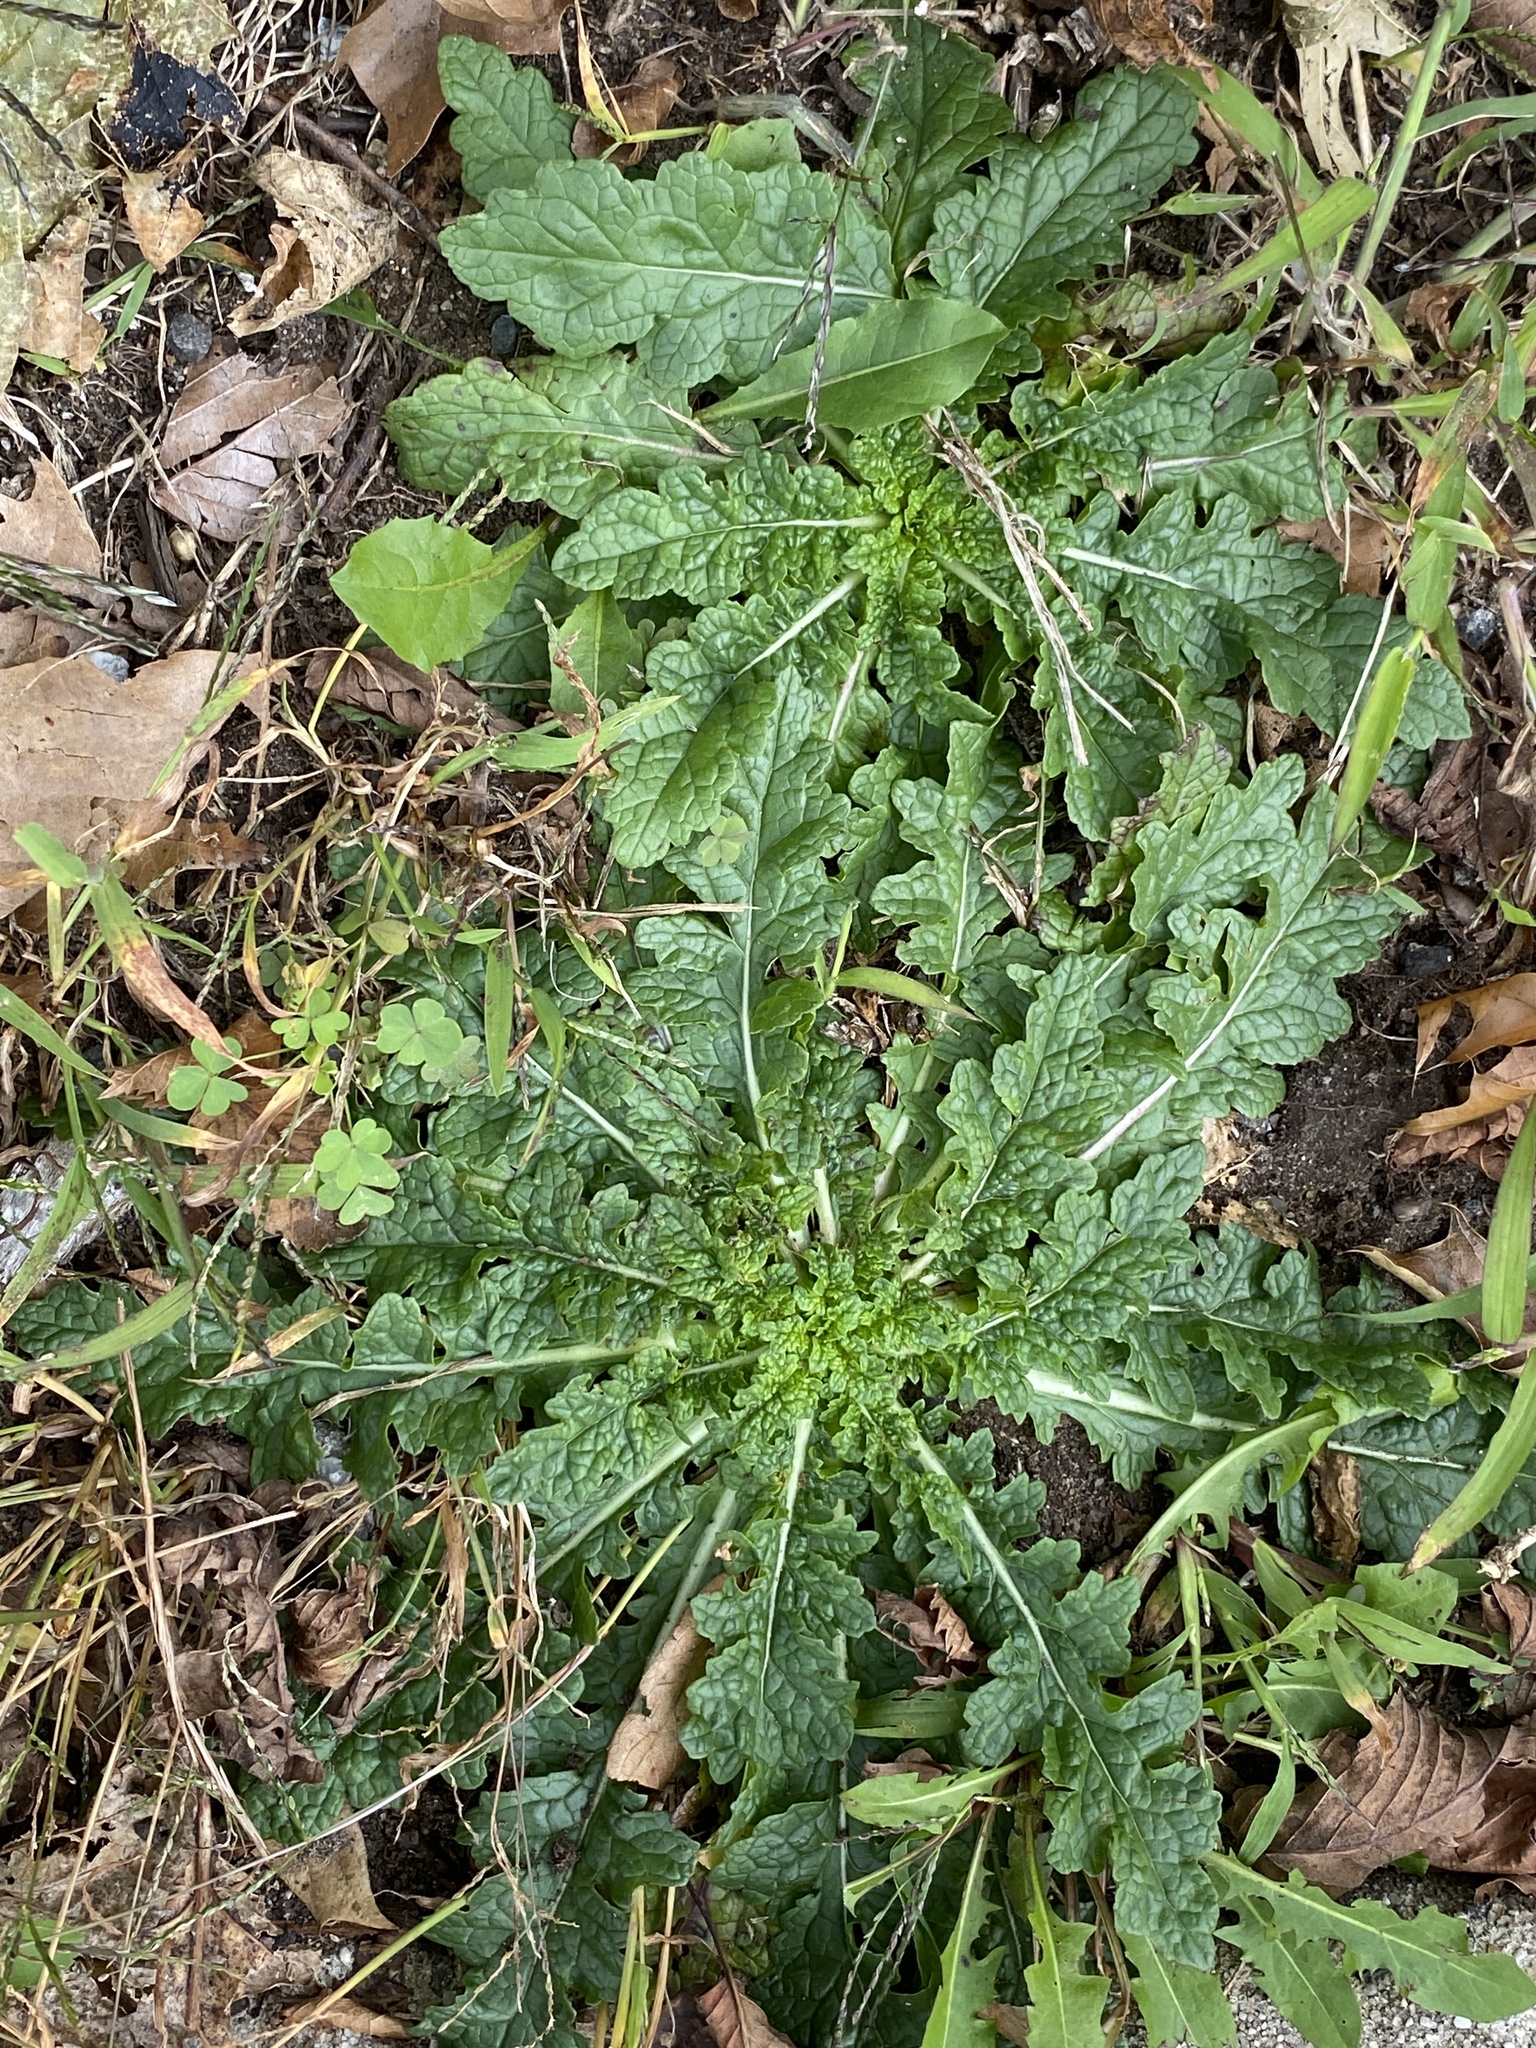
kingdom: Plantae
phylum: Tracheophyta
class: Magnoliopsida
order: Lamiales
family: Scrophulariaceae
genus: Verbascum
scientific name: Verbascum blattaria
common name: Moth mullein
